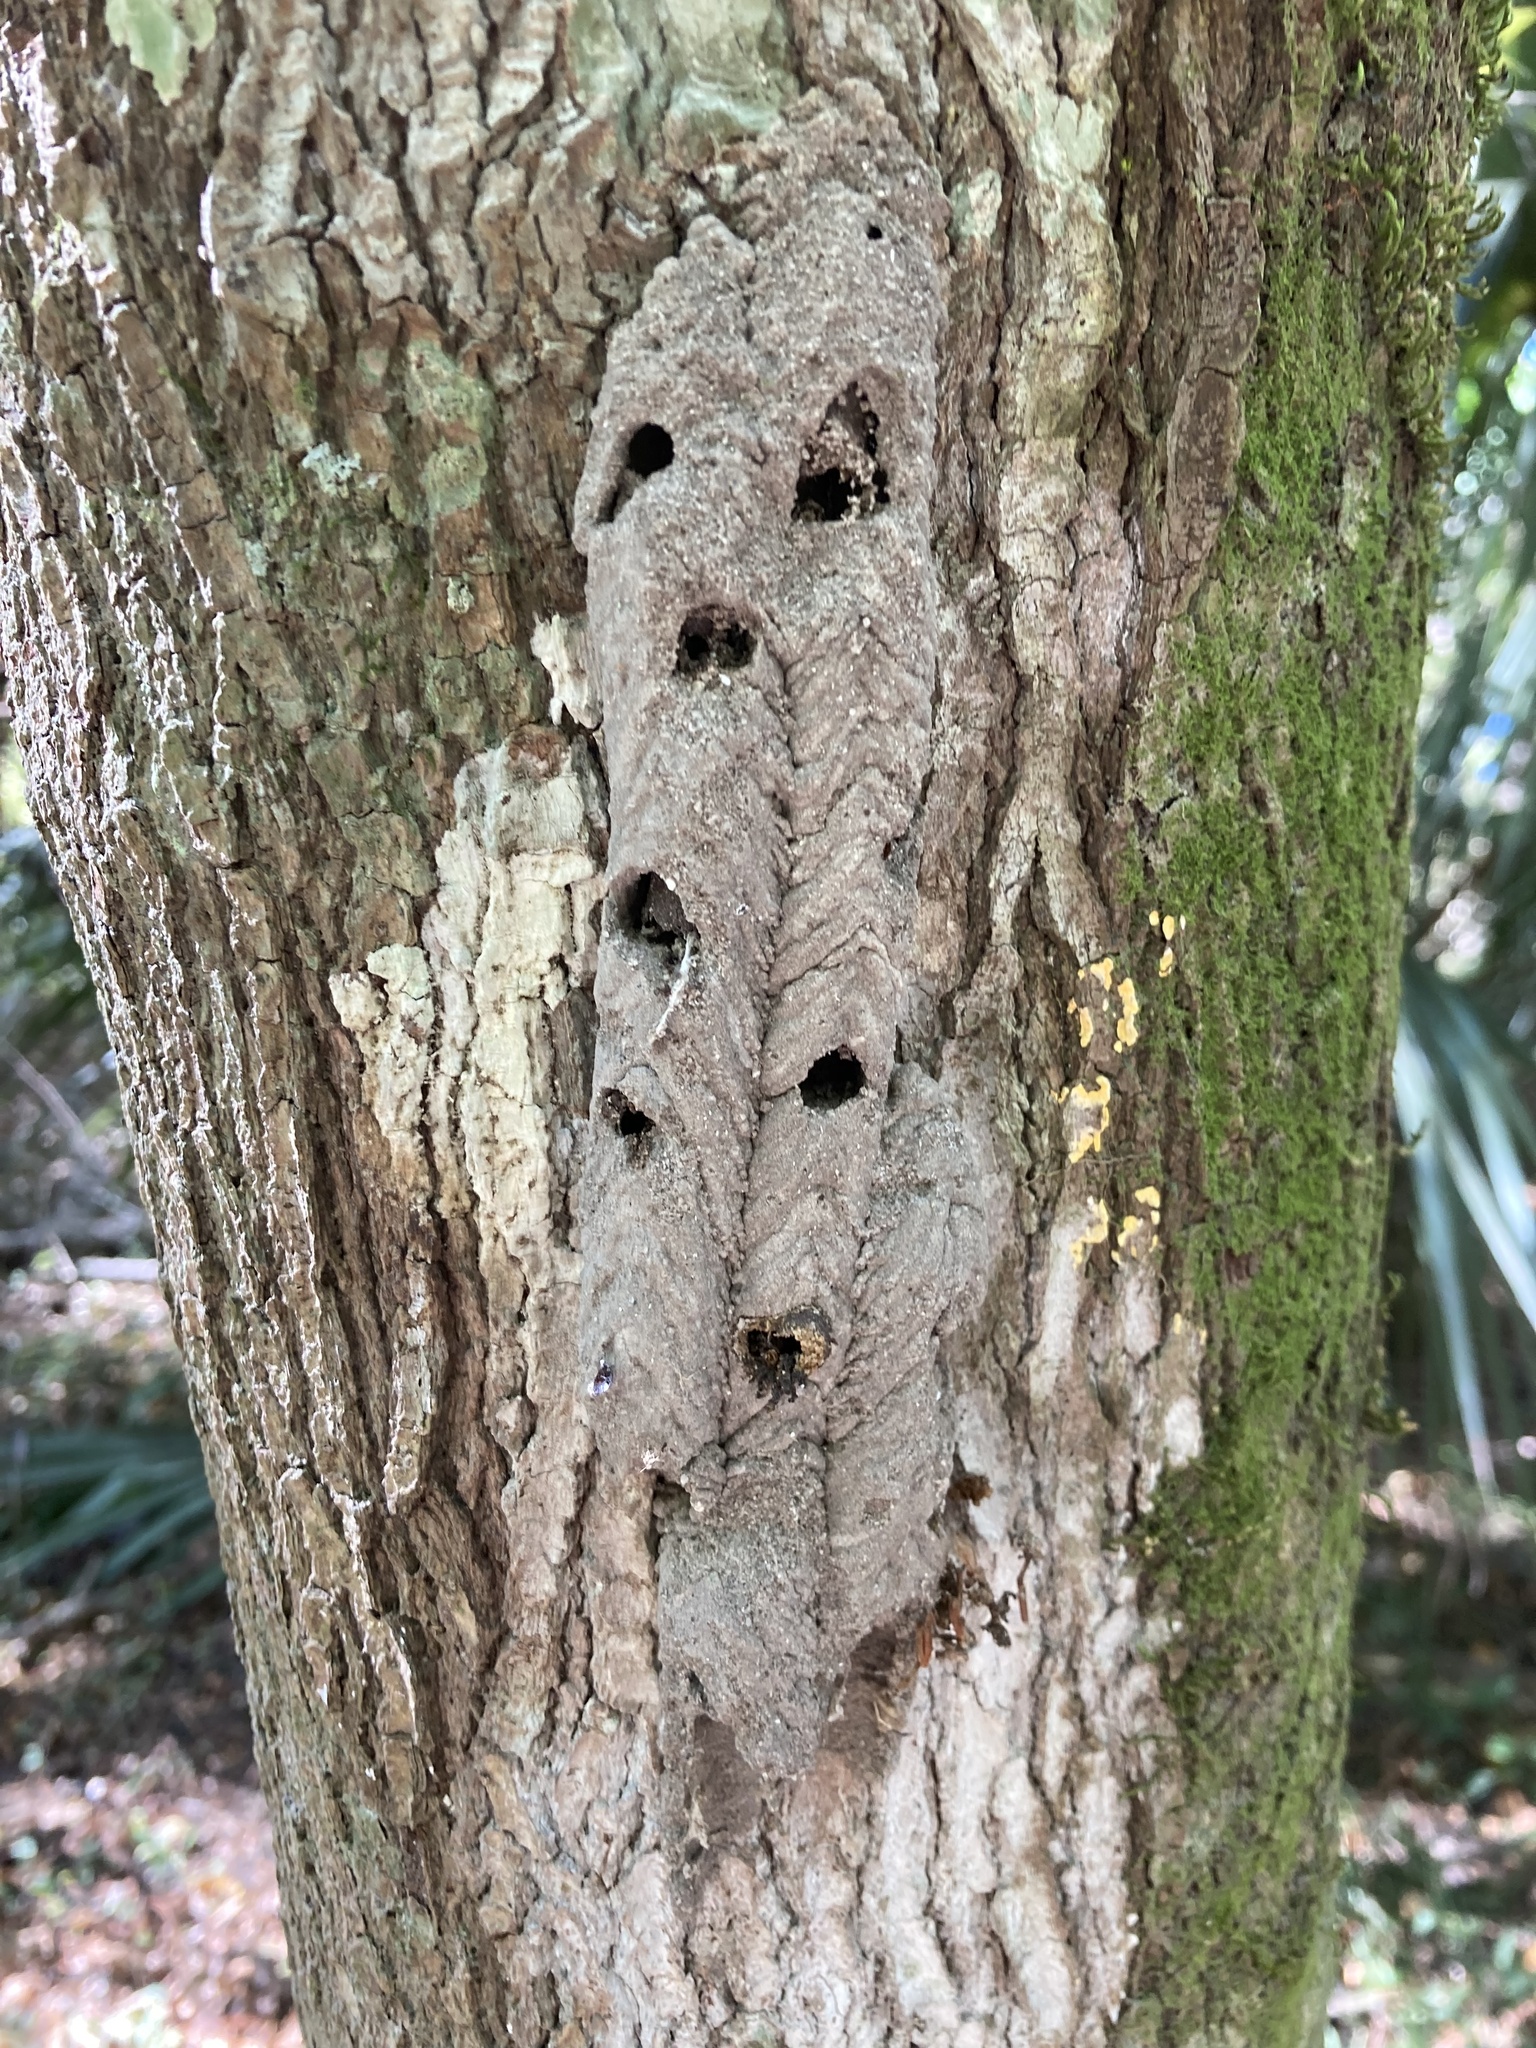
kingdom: Animalia
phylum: Arthropoda
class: Insecta
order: Hymenoptera
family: Crabronidae
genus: Trypoxylon
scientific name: Trypoxylon politum
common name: Organ-pipe mud-dauber wasp
